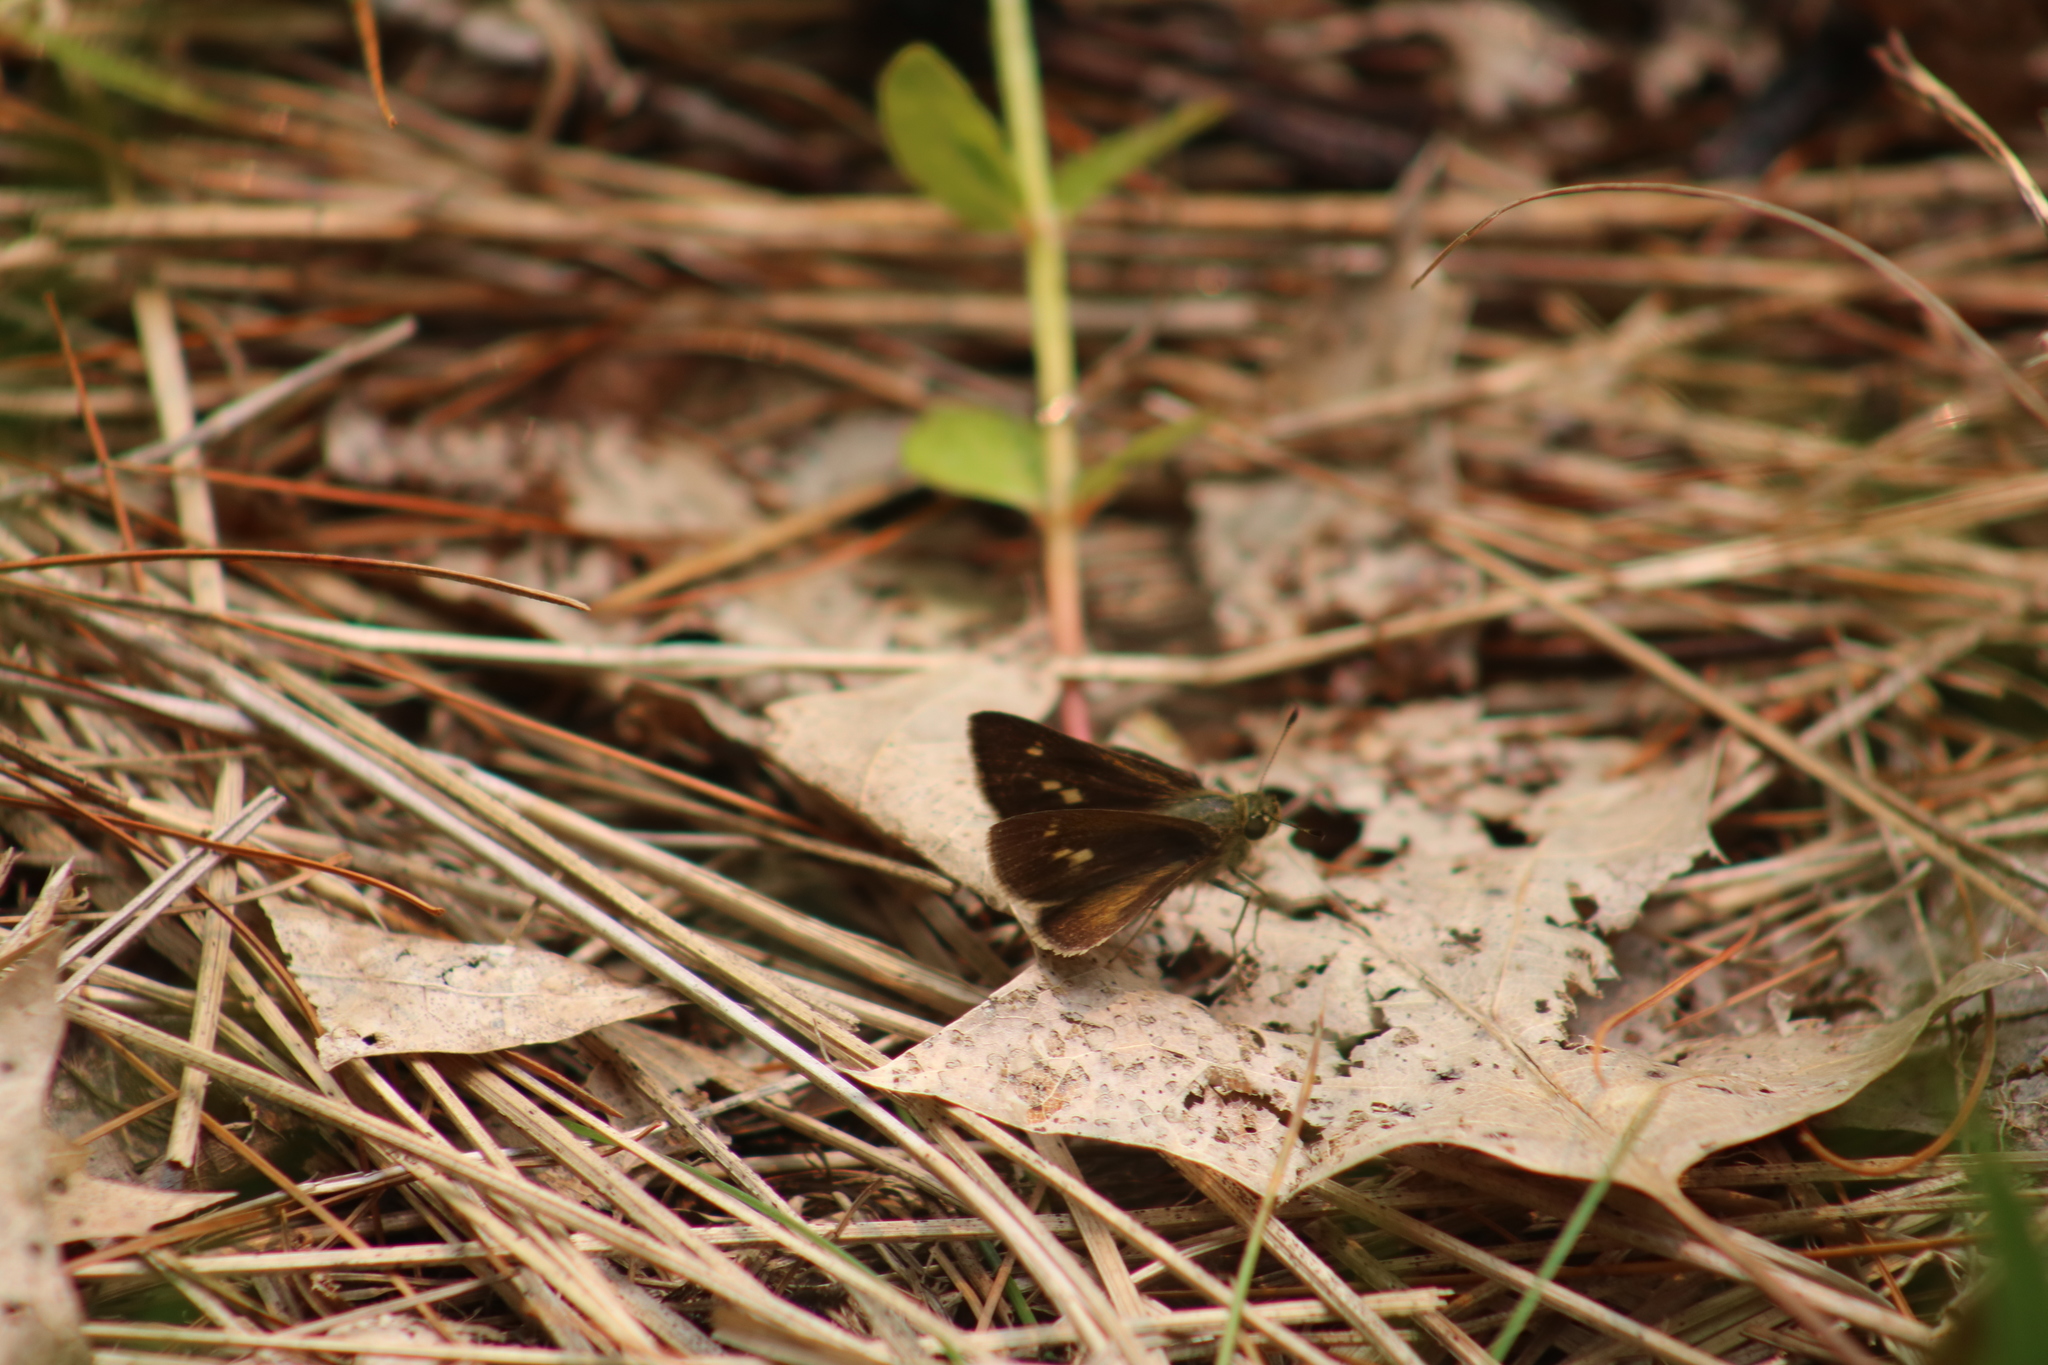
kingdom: Animalia
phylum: Arthropoda
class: Insecta
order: Lepidoptera
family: Hesperiidae
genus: Polites
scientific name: Polites egeremet
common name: Northern broken-dash
